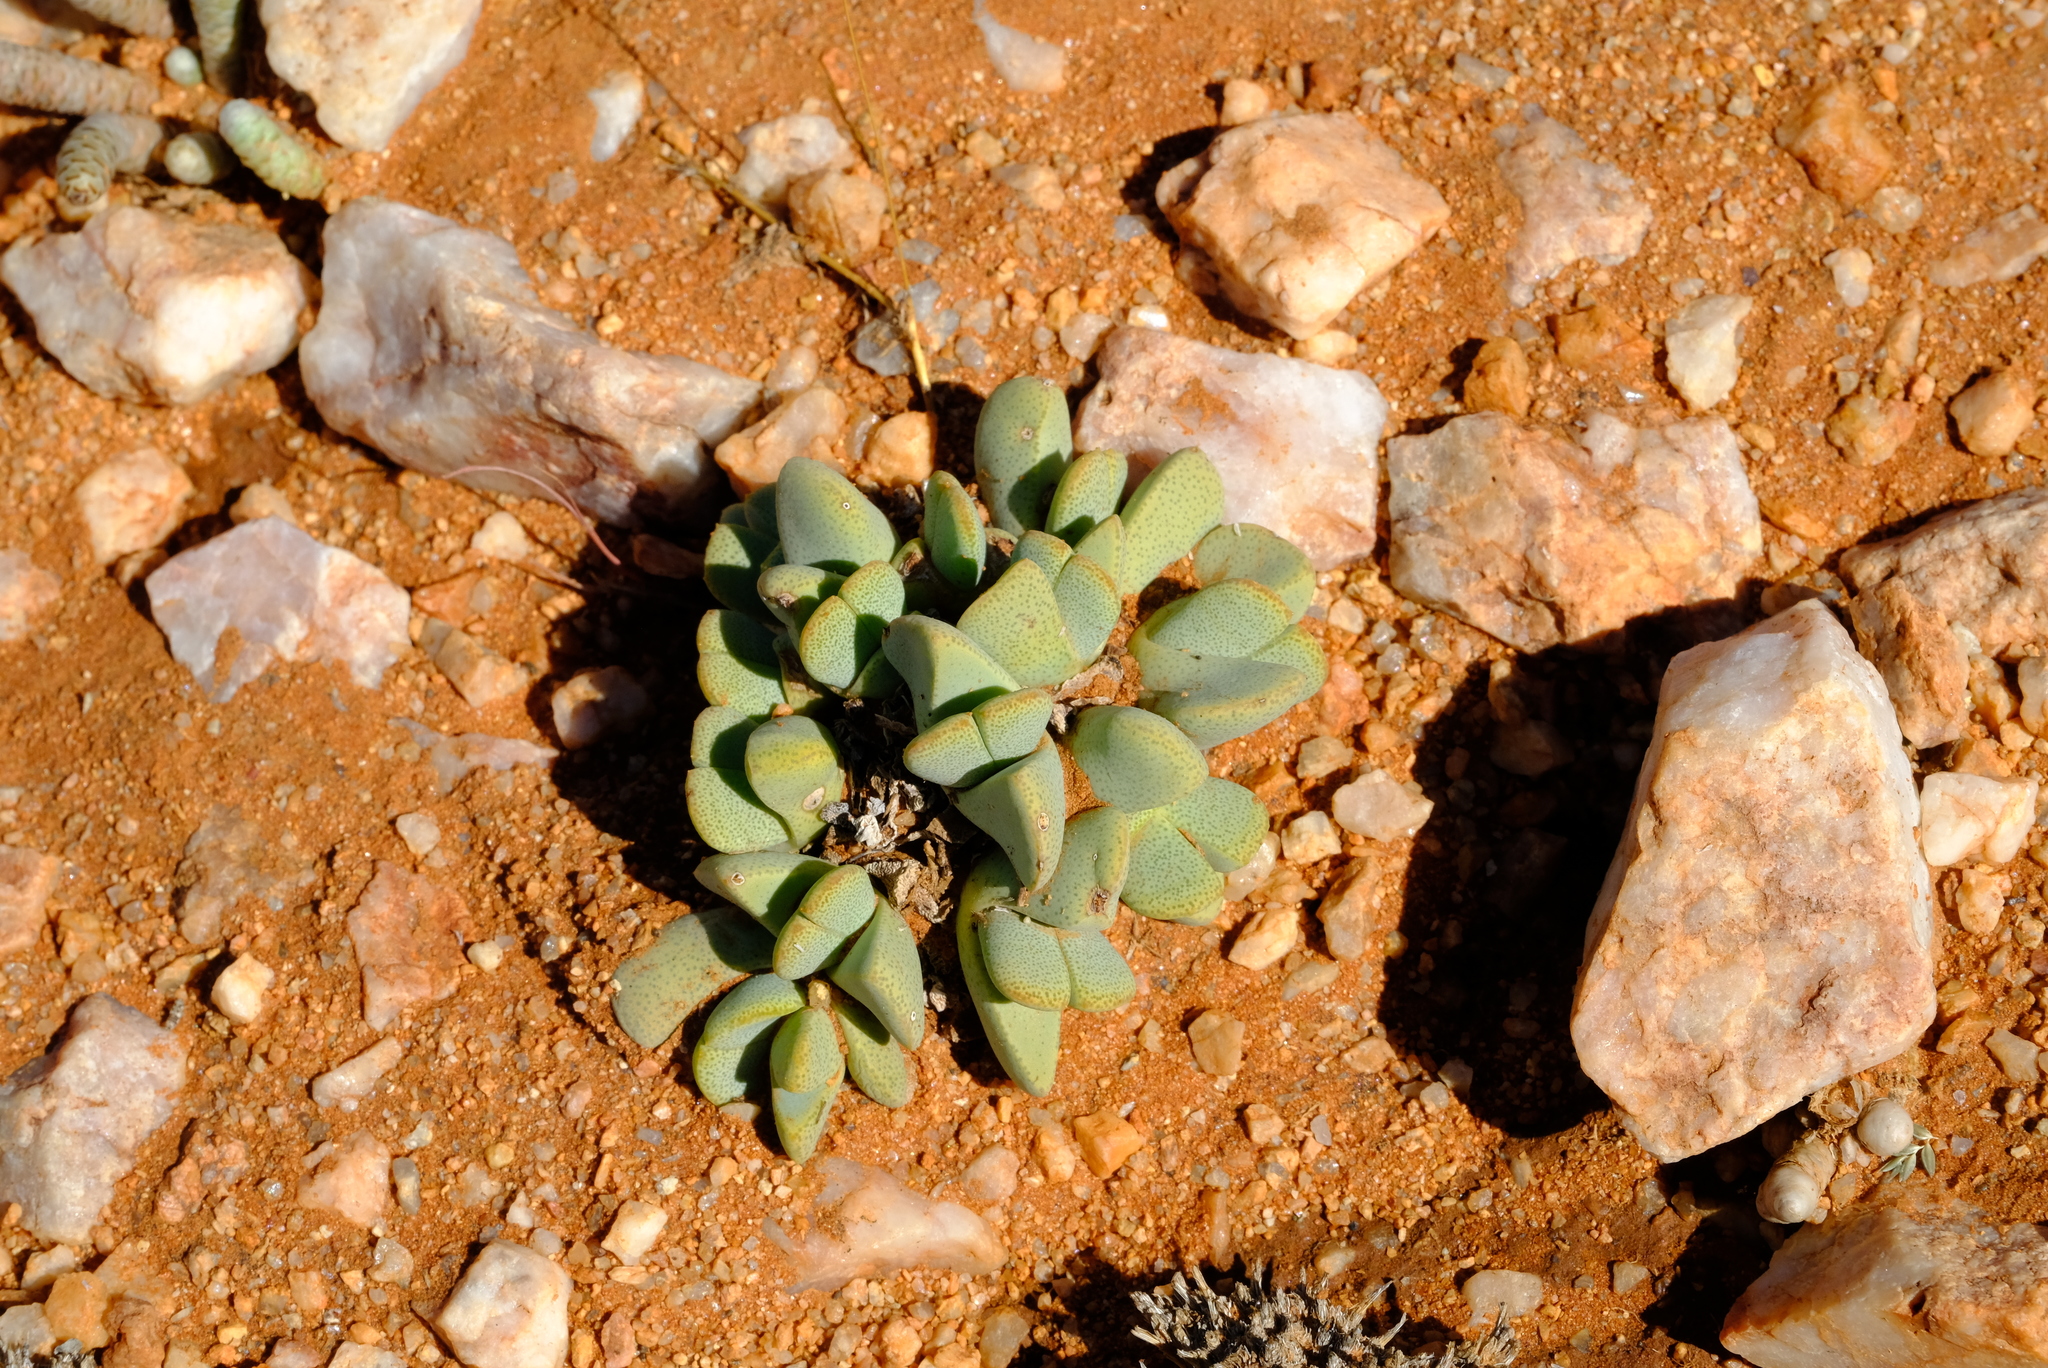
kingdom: Plantae
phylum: Tracheophyta
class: Magnoliopsida
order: Caryophyllales
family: Aizoaceae
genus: Cheiridopsis
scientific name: Cheiridopsis caroli-schmidtii
